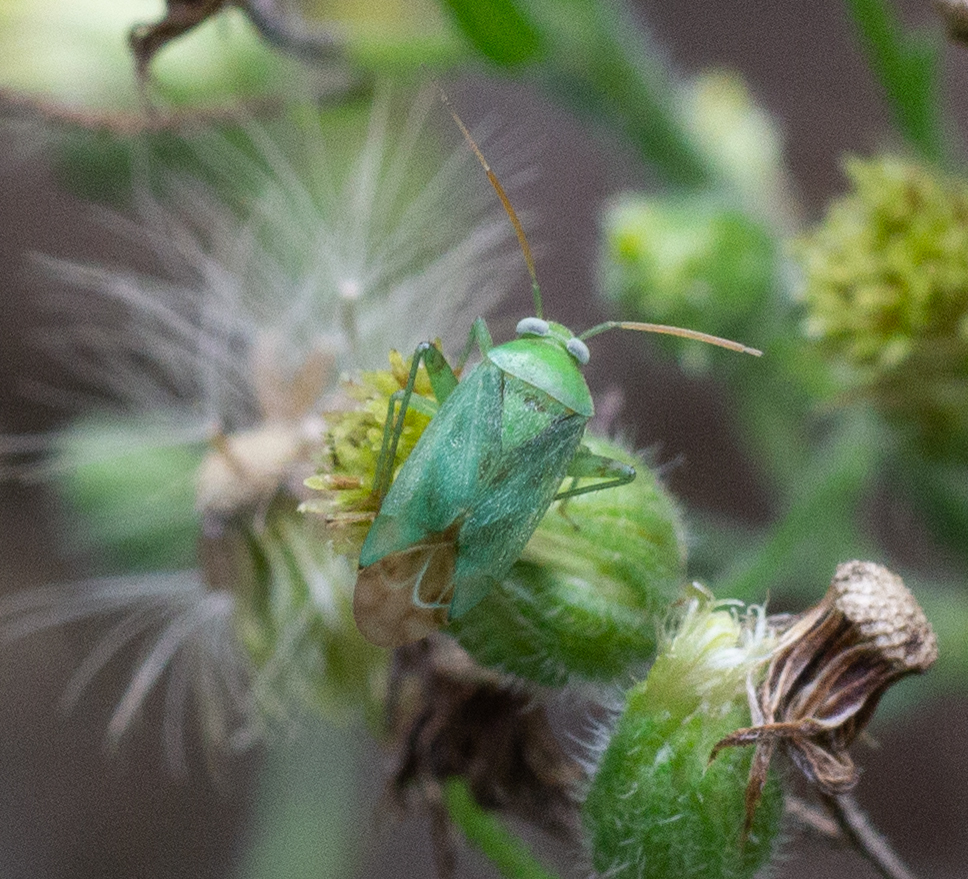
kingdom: Animalia
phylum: Arthropoda
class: Insecta
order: Hemiptera
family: Miridae
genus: Taylorilygus
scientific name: Taylorilygus apicalis
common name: Plant bug
